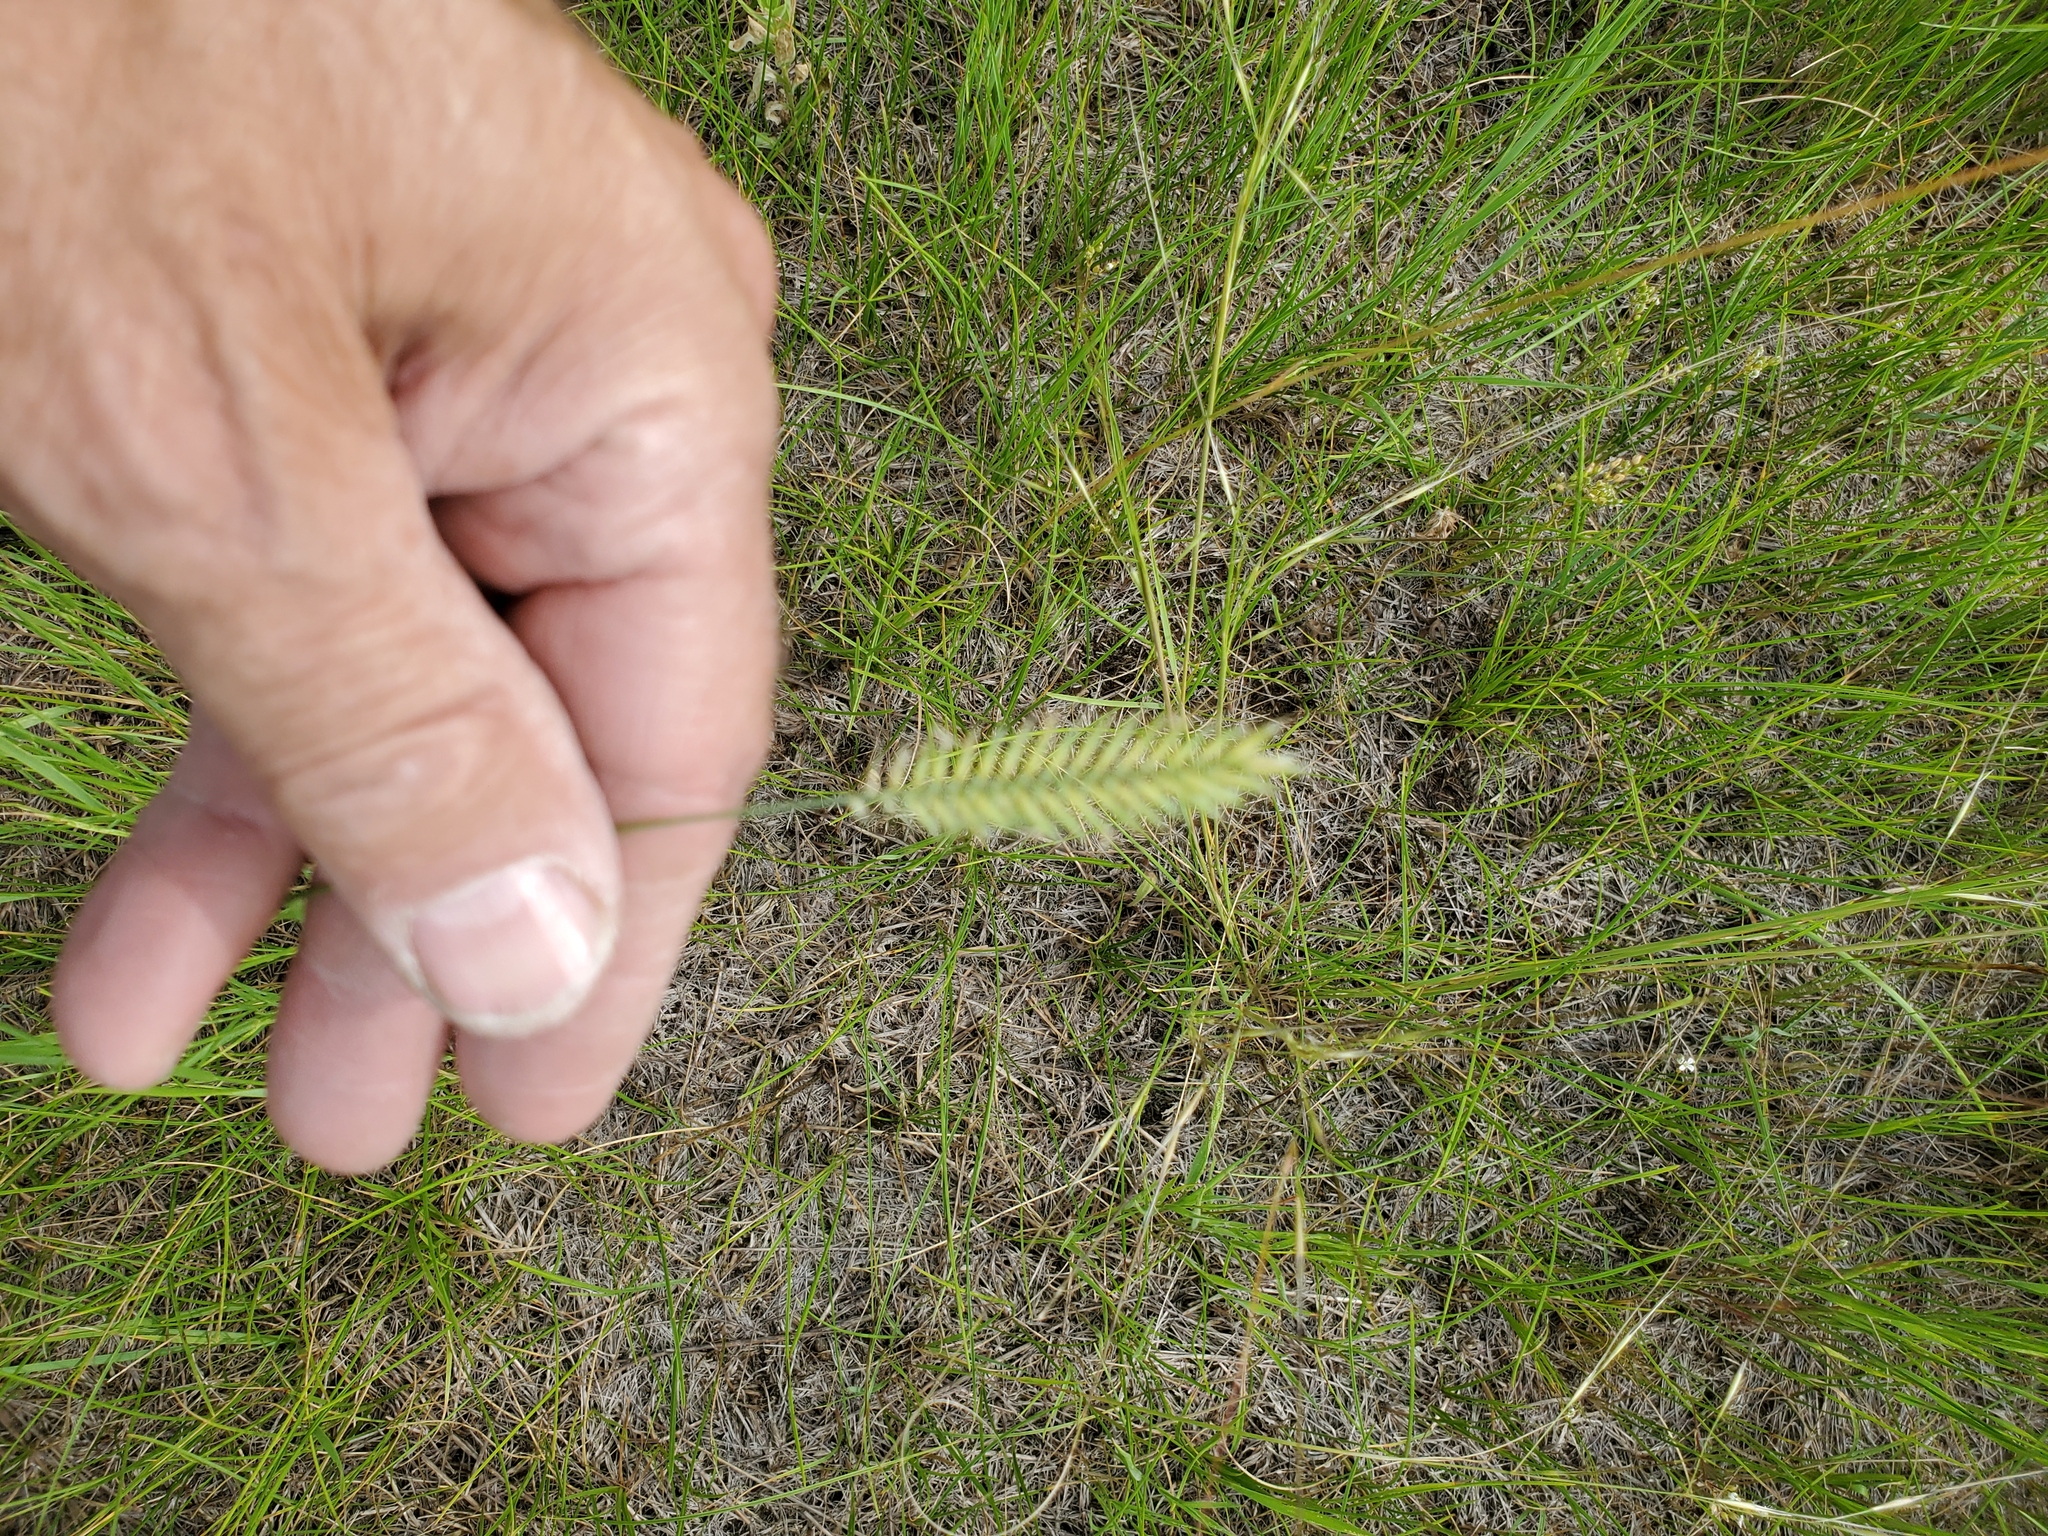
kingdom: Plantae
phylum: Tracheophyta
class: Liliopsida
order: Poales
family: Poaceae
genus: Agropyron
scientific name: Agropyron cristatum
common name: Crested wheatgrass
